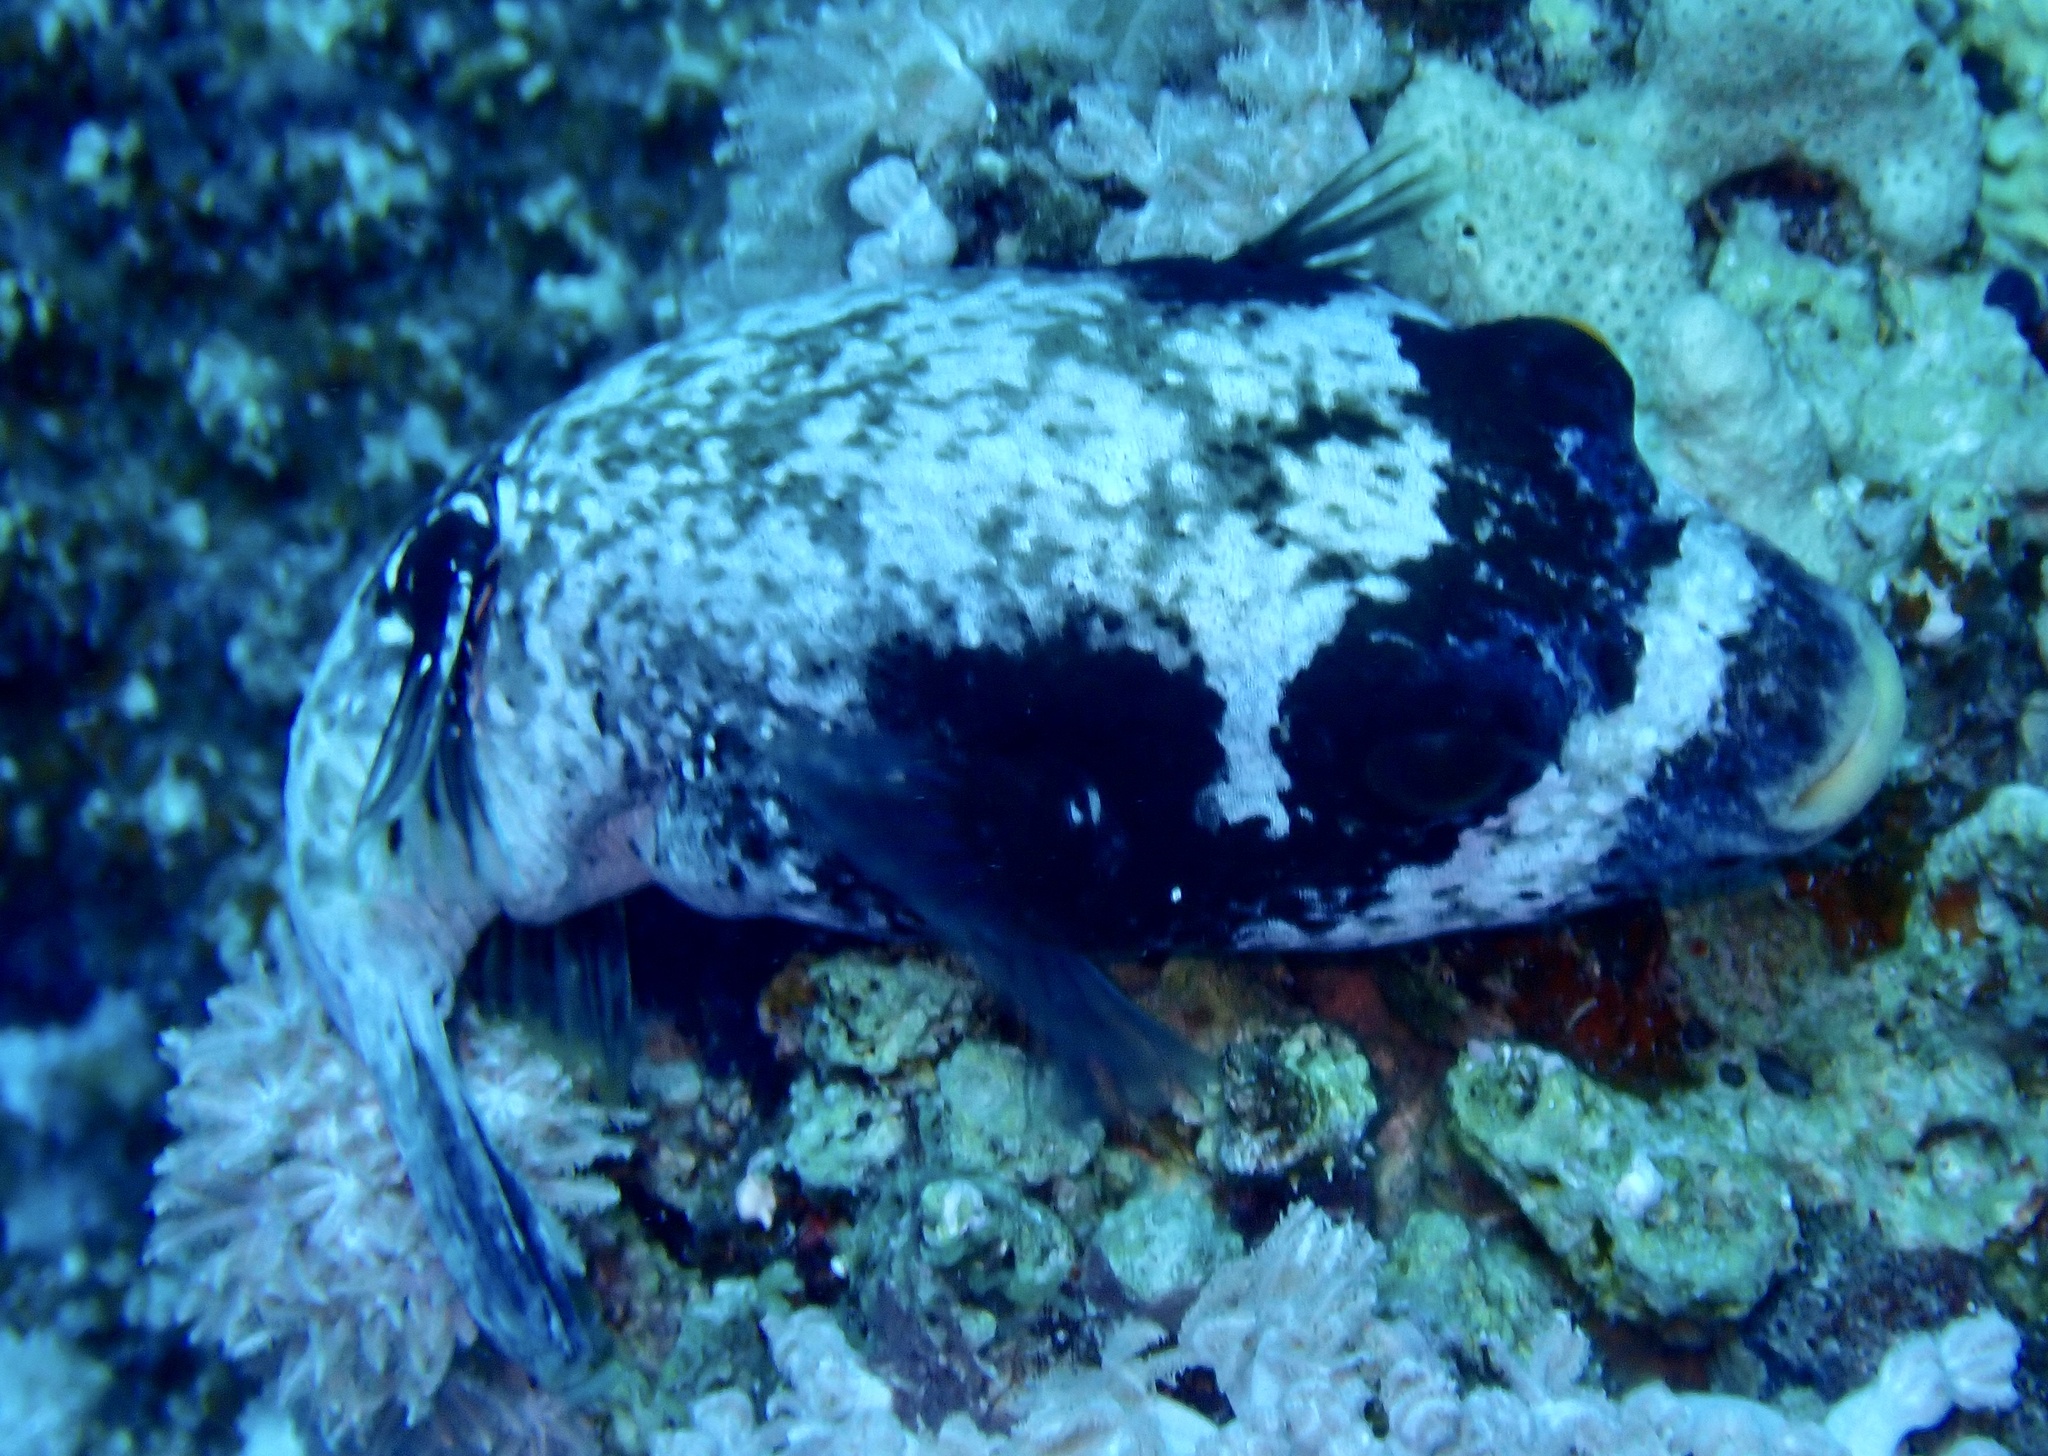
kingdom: Animalia
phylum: Chordata
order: Tetraodontiformes
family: Tetraodontidae
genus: Arothron
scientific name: Arothron diadematus
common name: Masked puffer
